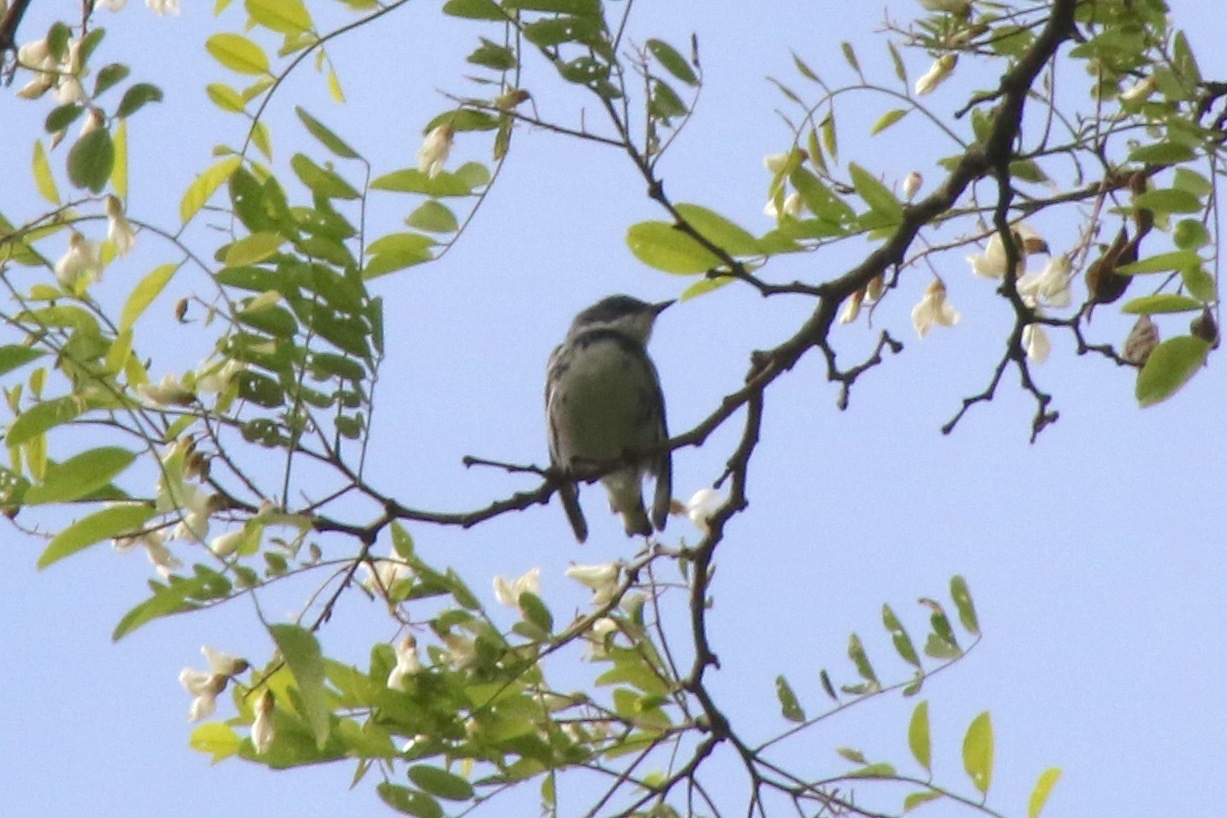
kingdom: Animalia
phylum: Chordata
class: Aves
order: Passeriformes
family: Parulidae
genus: Setophaga
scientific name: Setophaga cerulea
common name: Cerulean warbler
